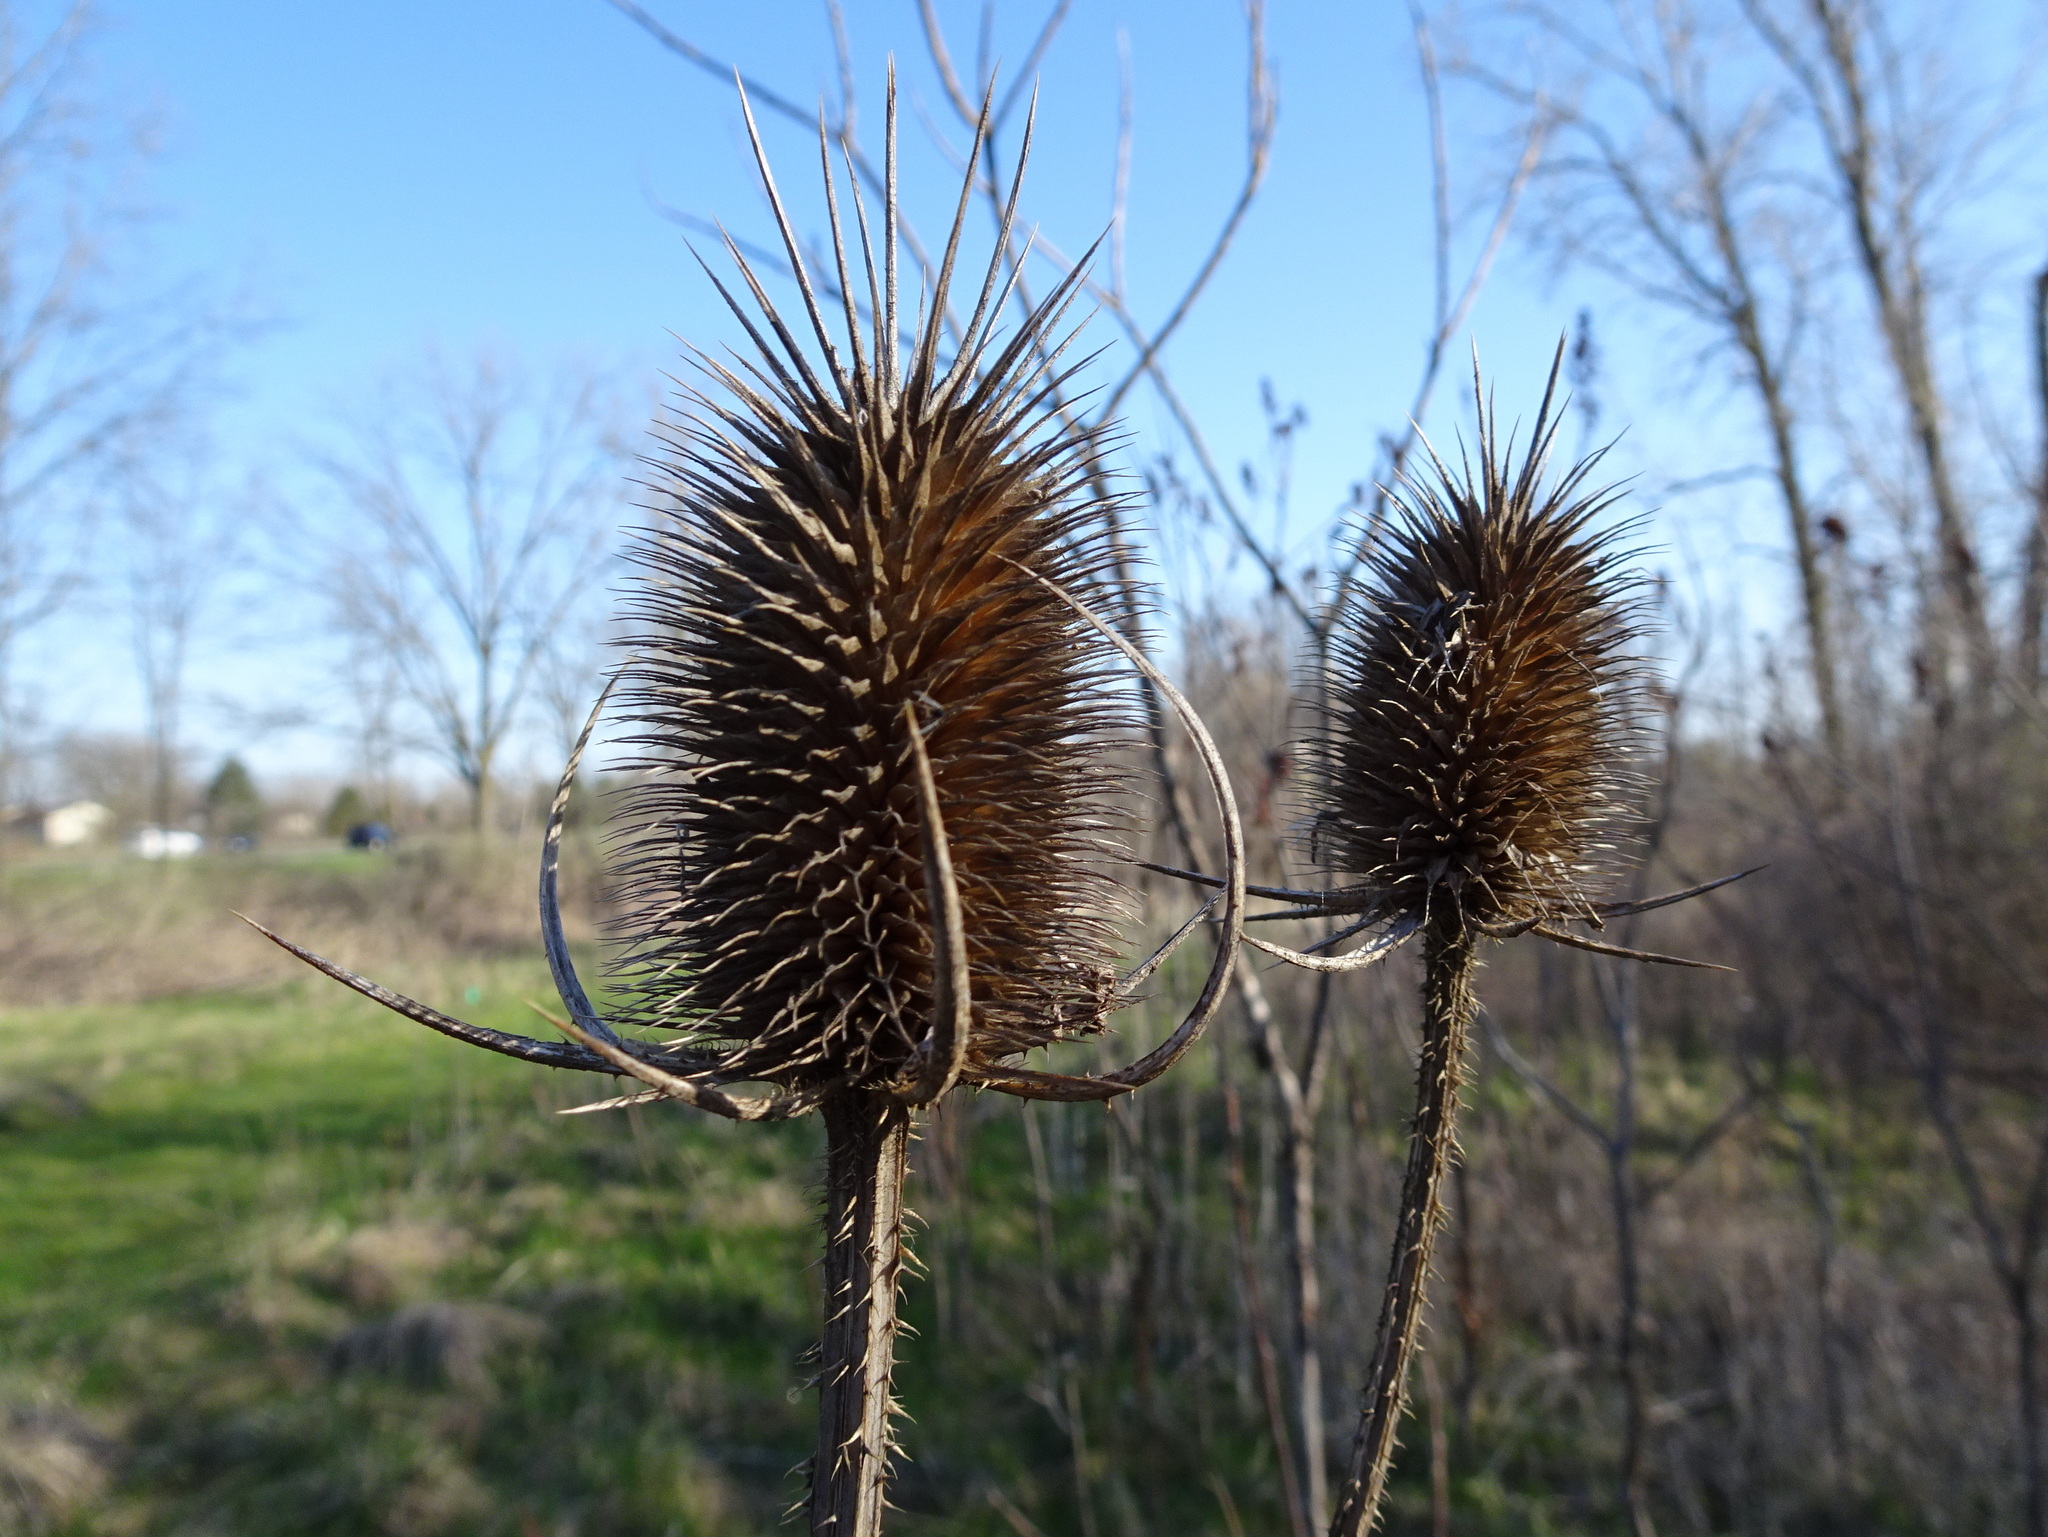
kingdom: Plantae
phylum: Tracheophyta
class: Magnoliopsida
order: Dipsacales
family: Caprifoliaceae
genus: Dipsacus
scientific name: Dipsacus fullonum
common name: Teasel
